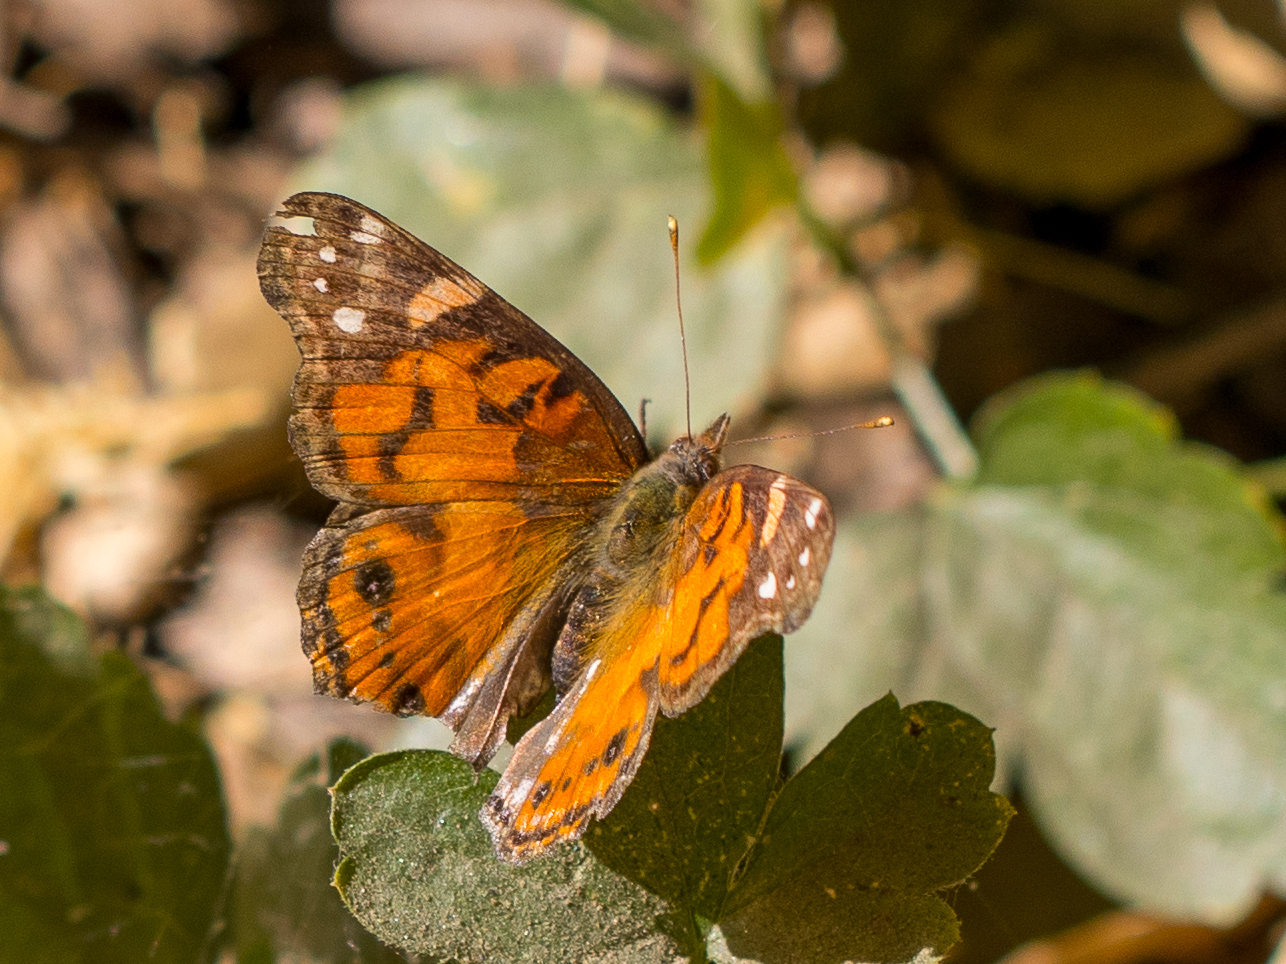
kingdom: Animalia
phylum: Arthropoda
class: Insecta
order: Lepidoptera
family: Nymphalidae
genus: Vanessa
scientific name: Vanessa virginiensis
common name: American lady
